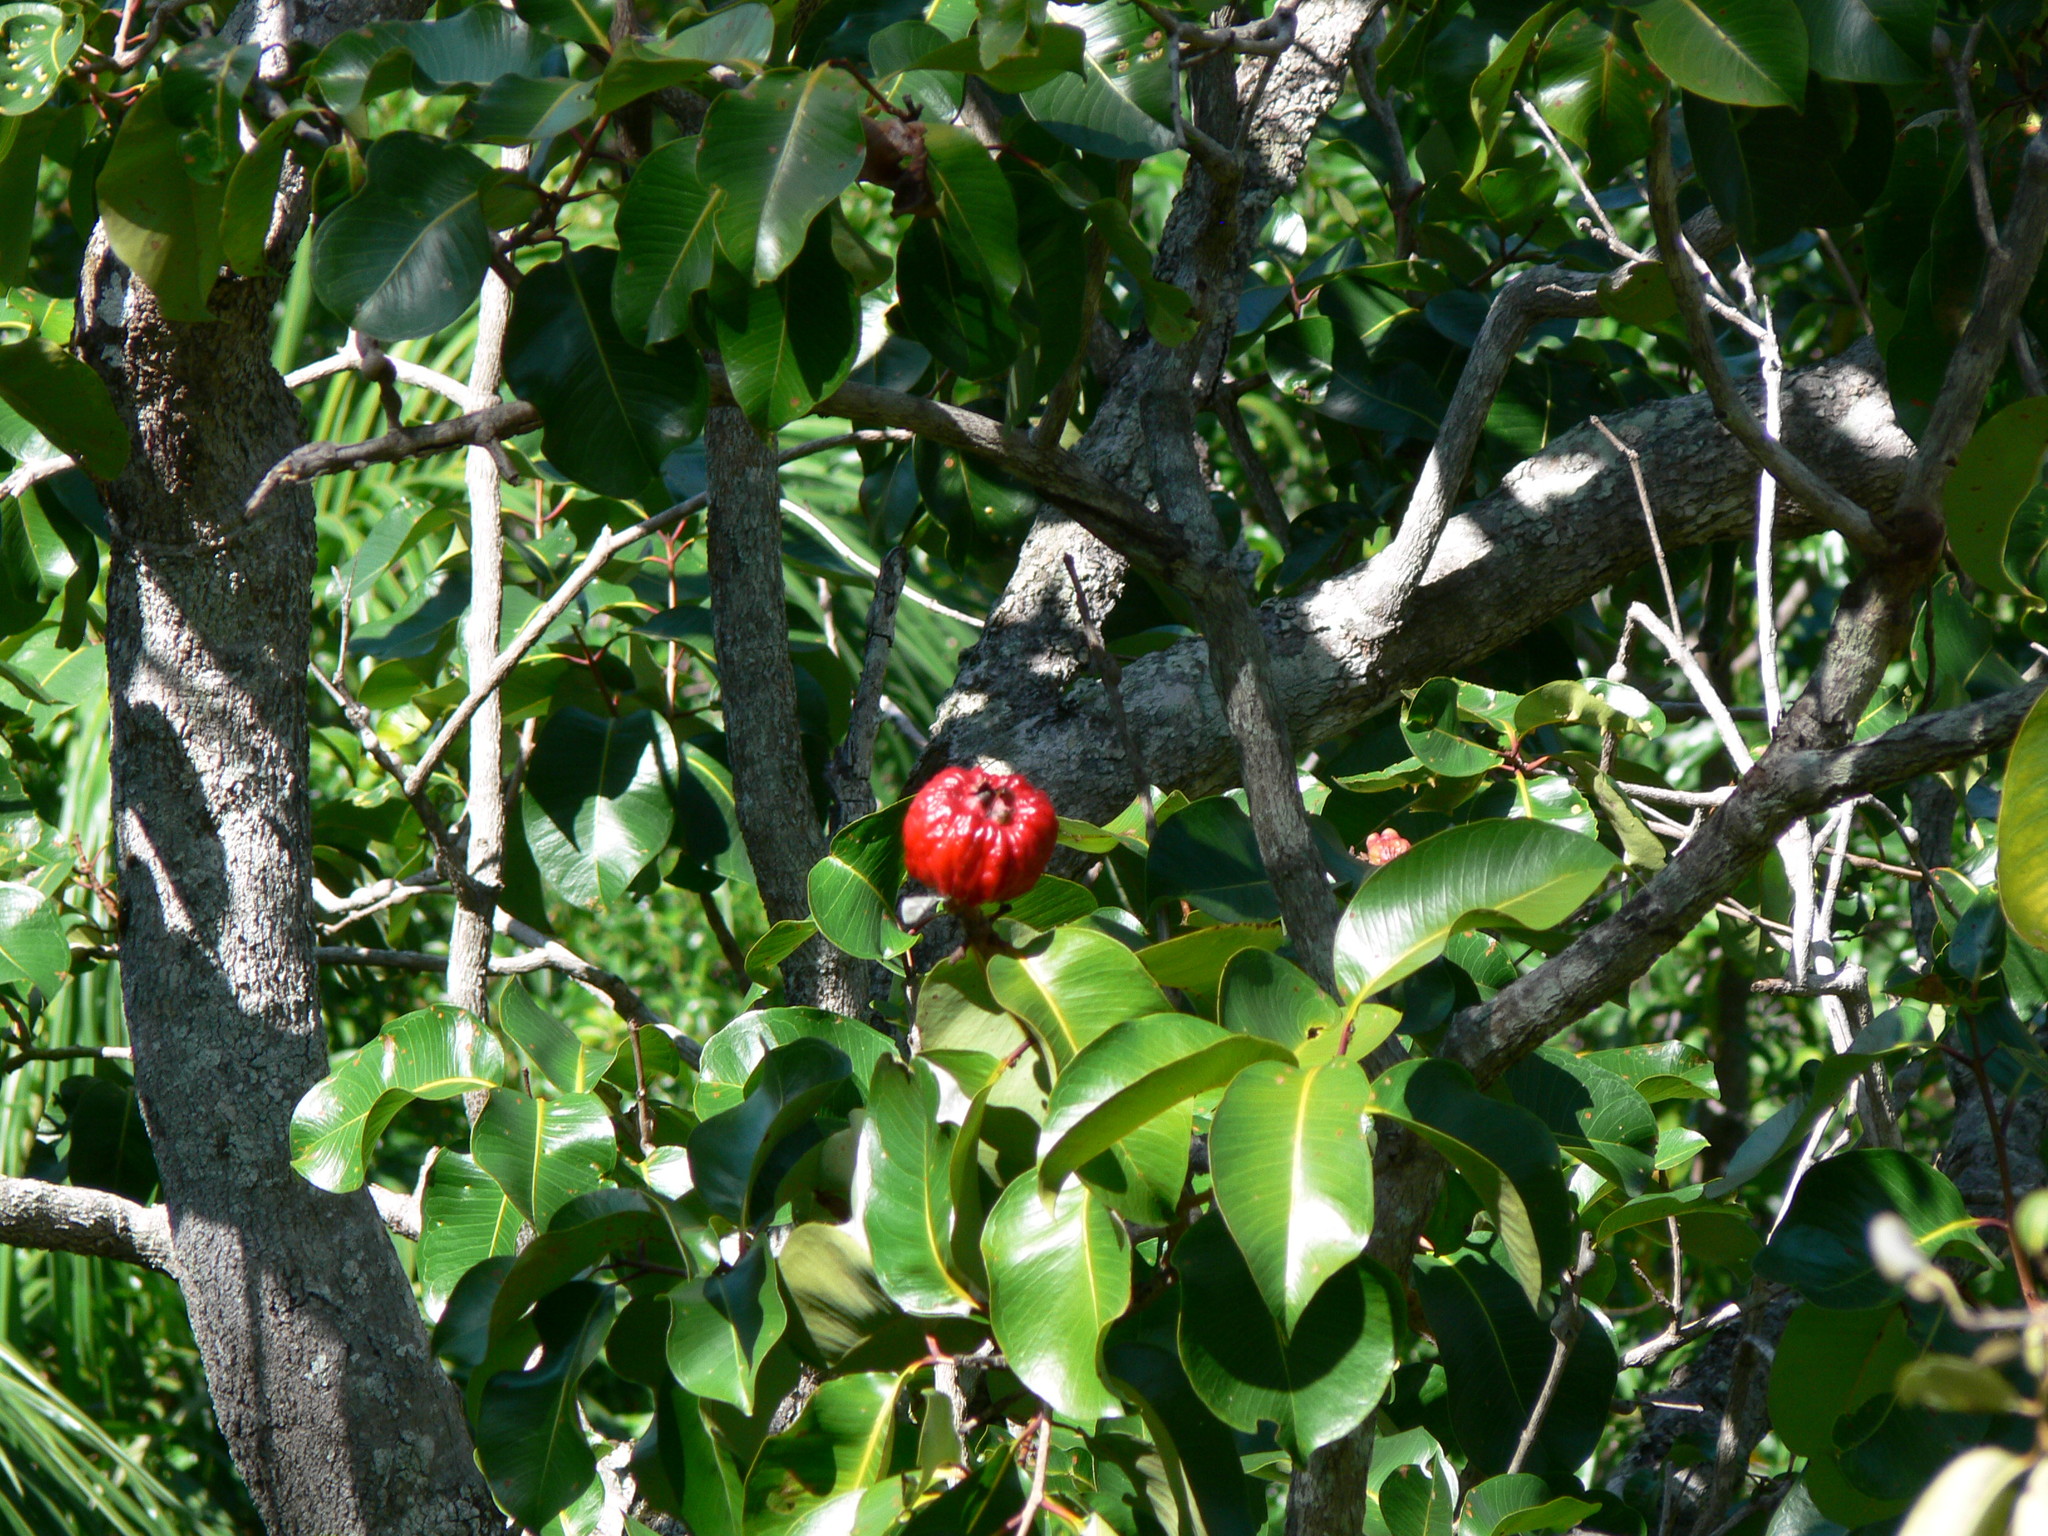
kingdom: Plantae
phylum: Tracheophyta
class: Magnoliopsida
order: Myrtales
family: Myrtaceae
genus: Syzygium
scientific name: Syzygium suborbiculare
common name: Red bush apple
